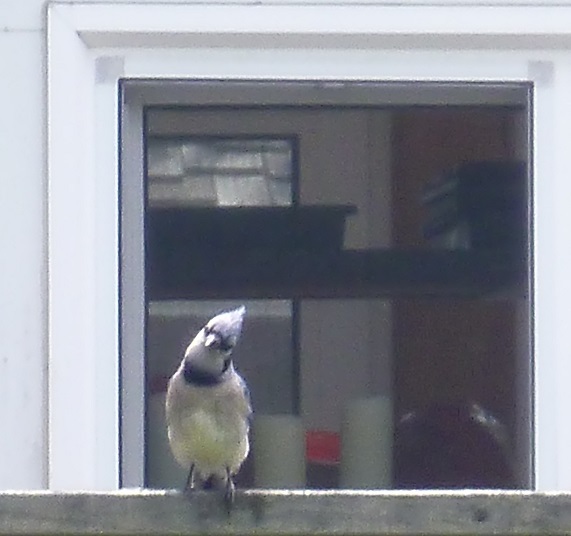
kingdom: Animalia
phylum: Chordata
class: Aves
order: Passeriformes
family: Corvidae
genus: Cyanocitta
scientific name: Cyanocitta cristata
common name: Blue jay
